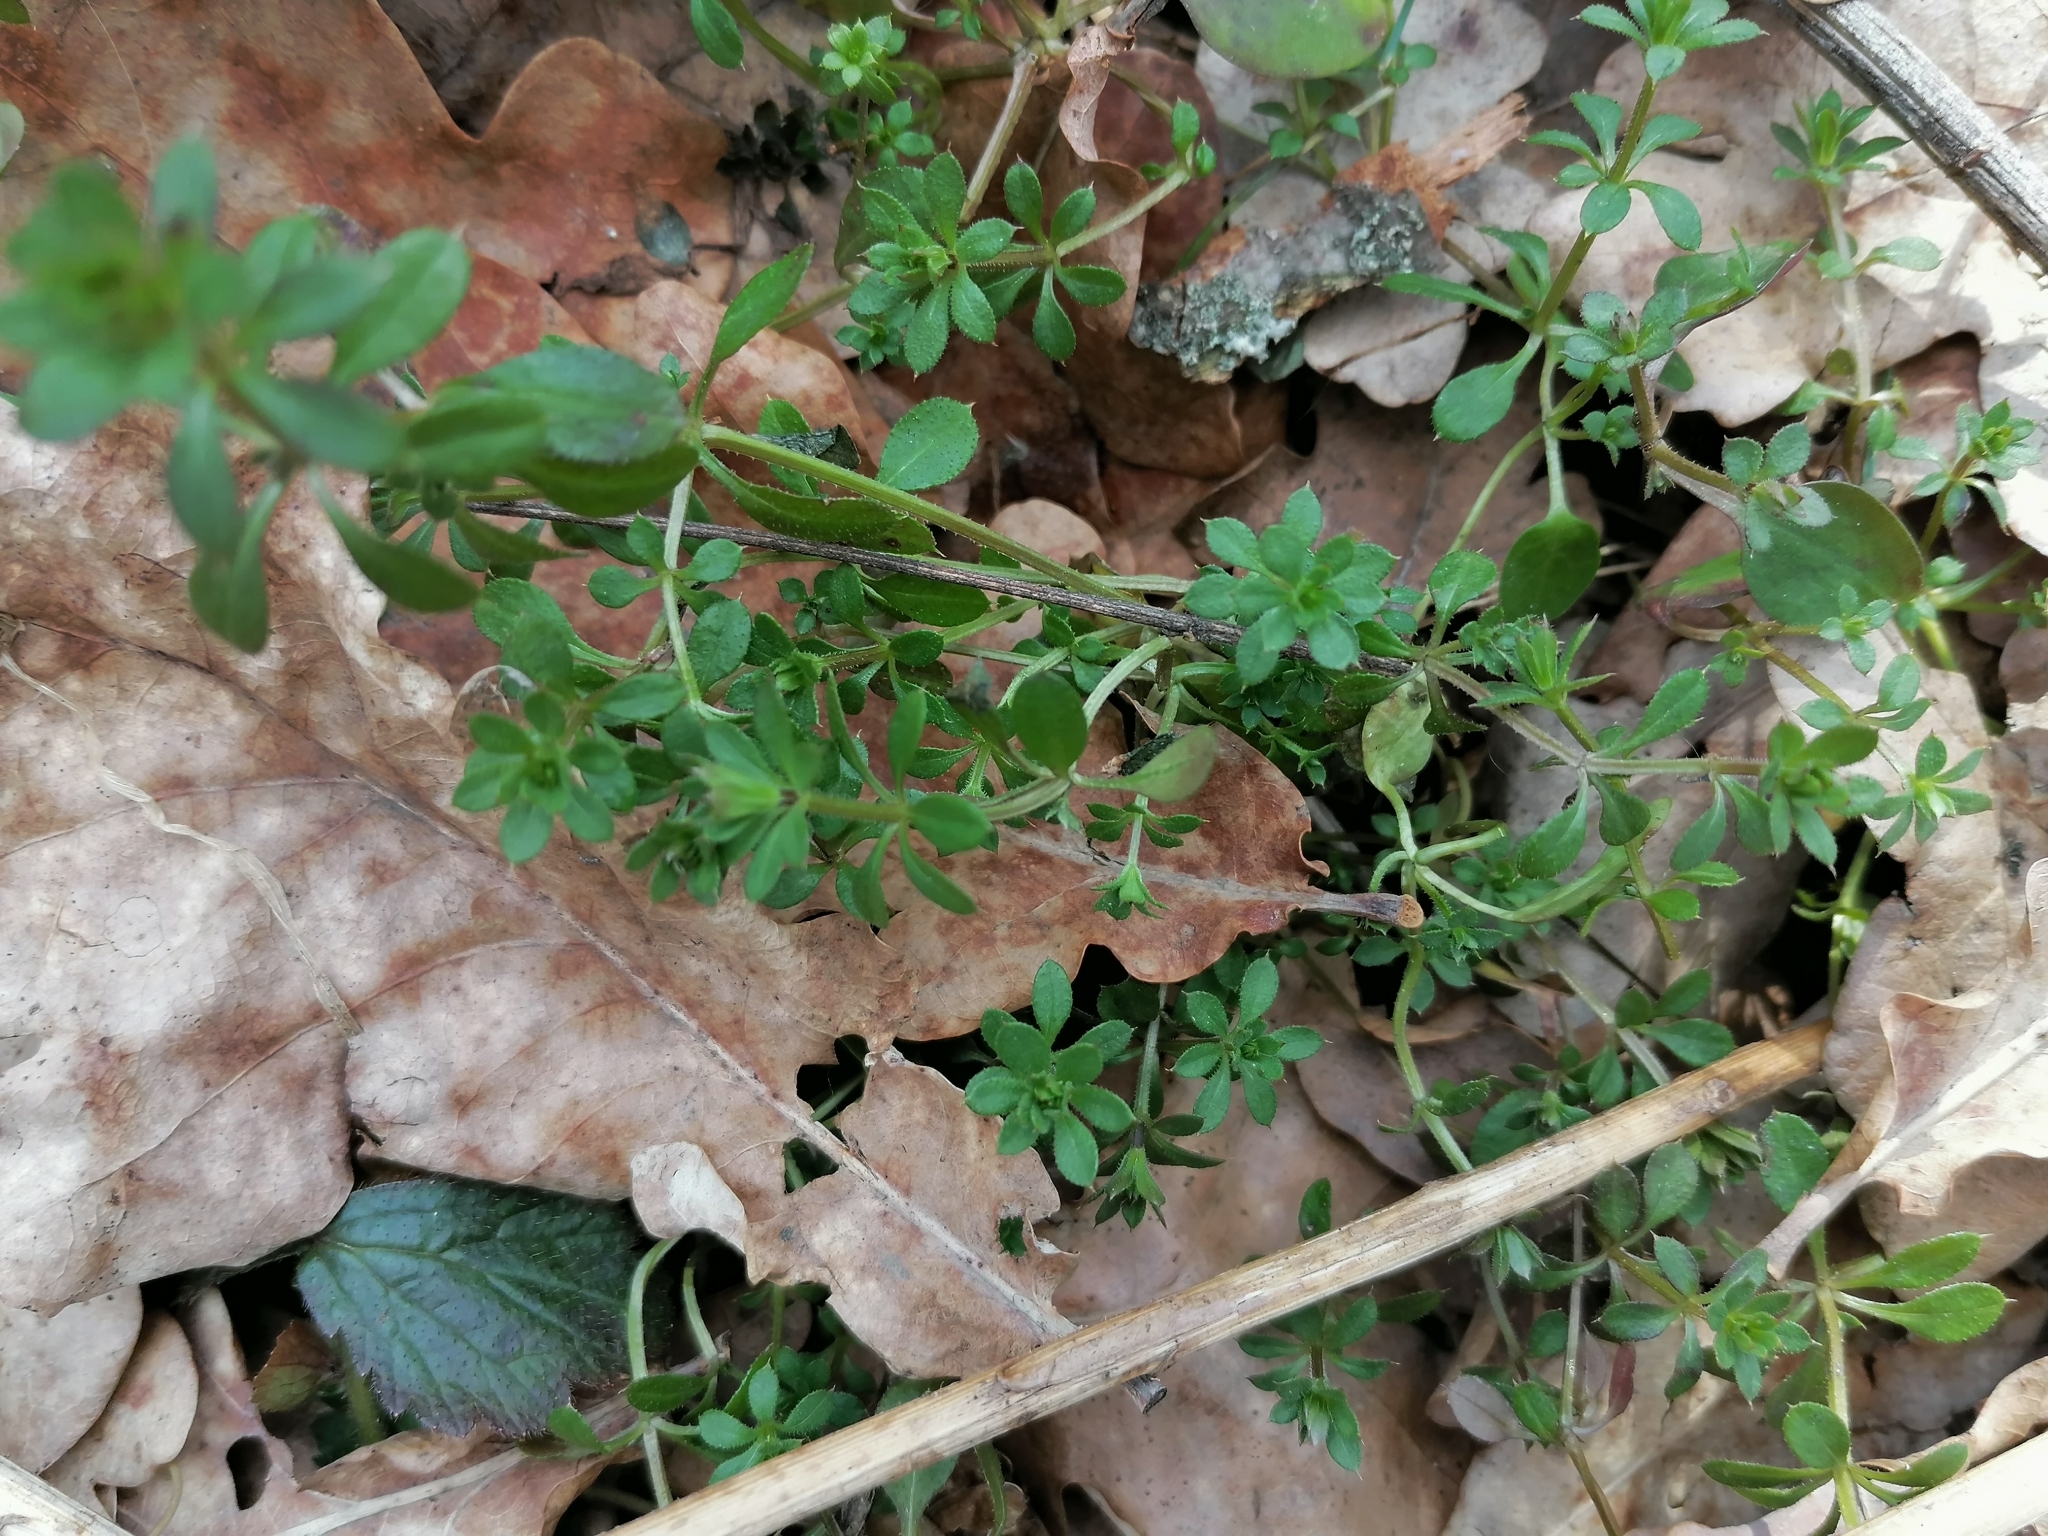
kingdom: Plantae
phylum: Tracheophyta
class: Magnoliopsida
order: Gentianales
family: Rubiaceae
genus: Galium
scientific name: Galium aparine
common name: Cleavers
